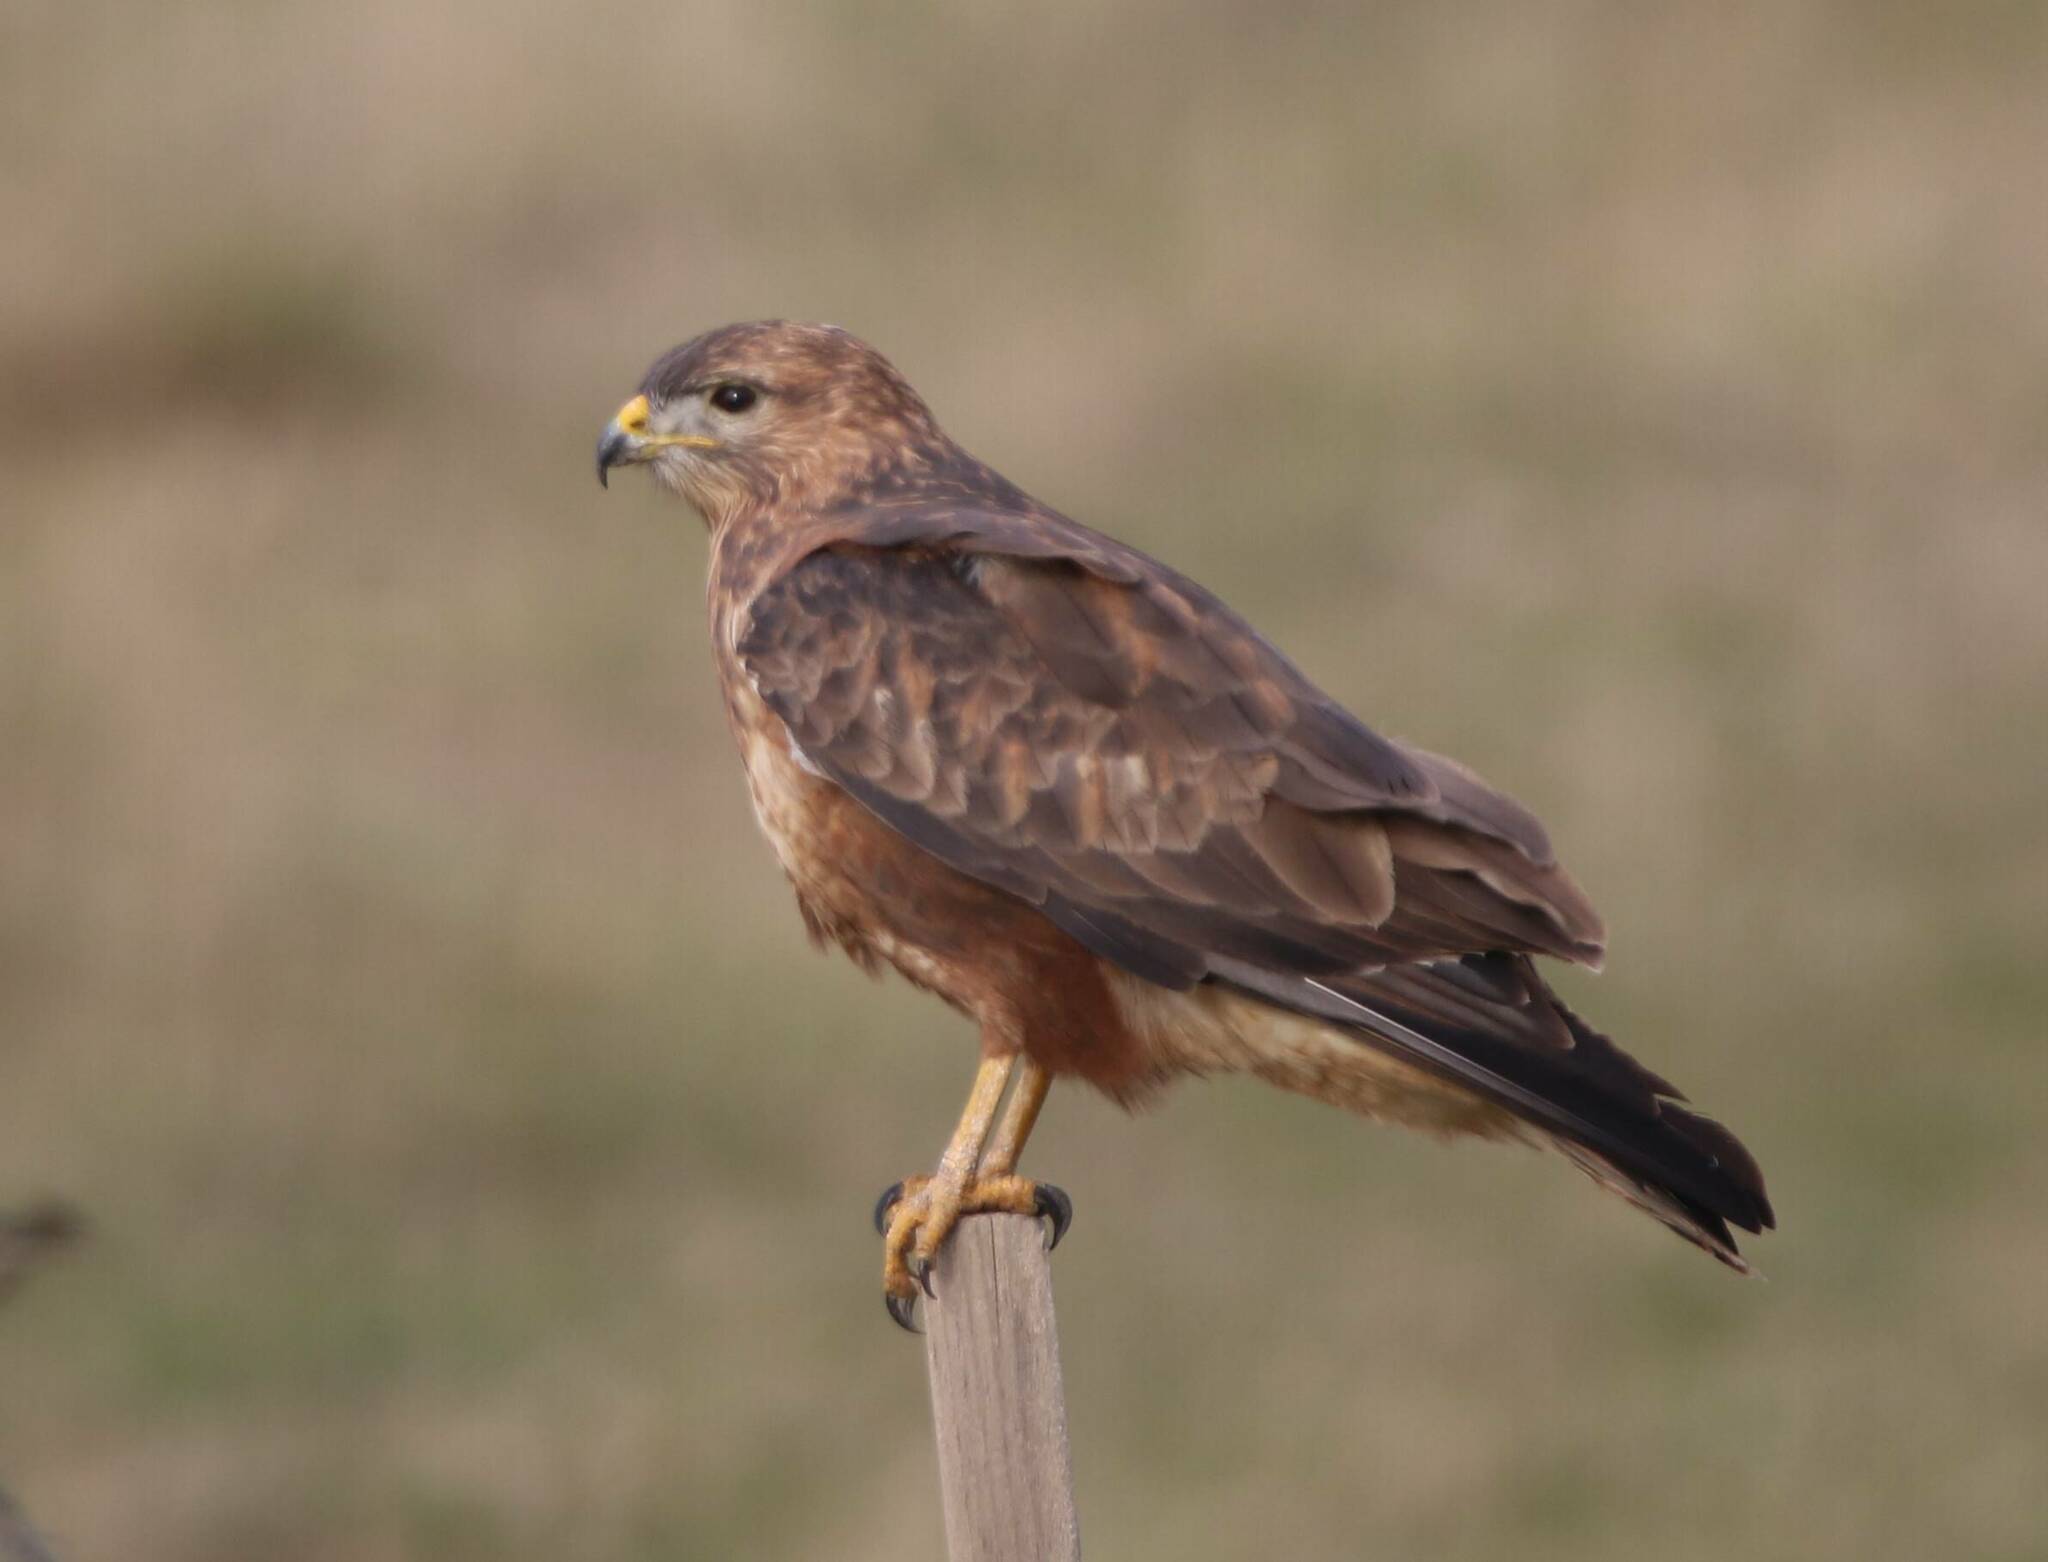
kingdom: Animalia
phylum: Chordata
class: Aves
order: Accipitriformes
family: Accipitridae
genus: Buteo
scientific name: Buteo rufinus
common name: Long-legged buzzard
